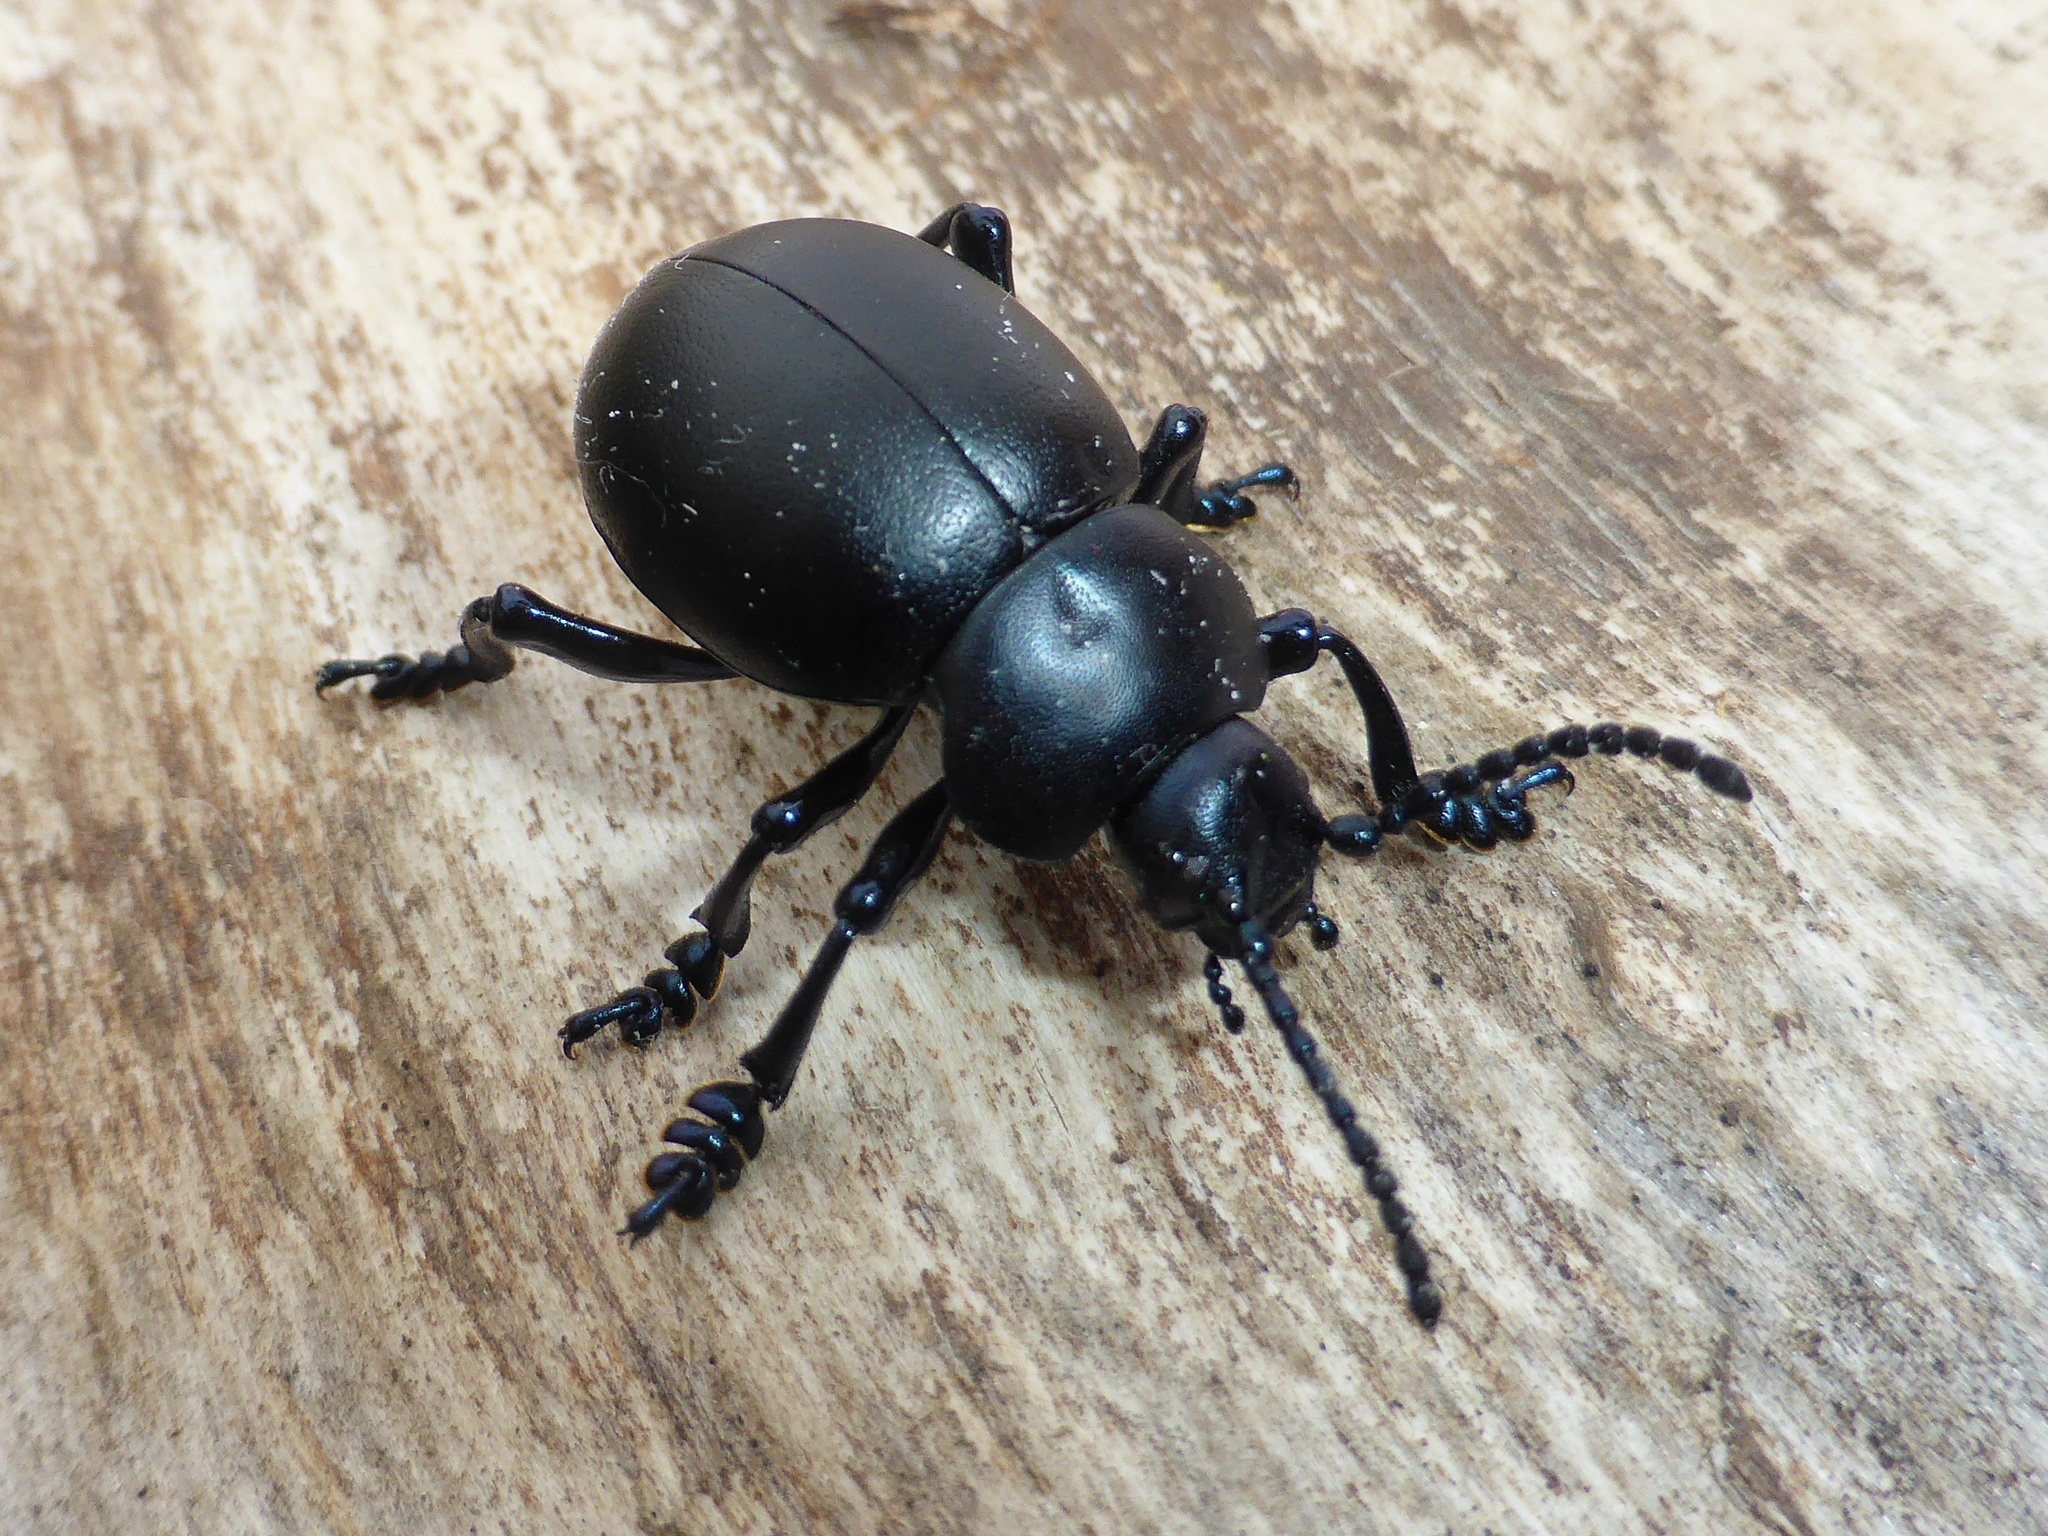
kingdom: Animalia
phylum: Arthropoda
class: Insecta
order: Coleoptera
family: Chrysomelidae
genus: Timarcha
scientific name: Timarcha tenebricosa
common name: Bloody-nosed beetle
